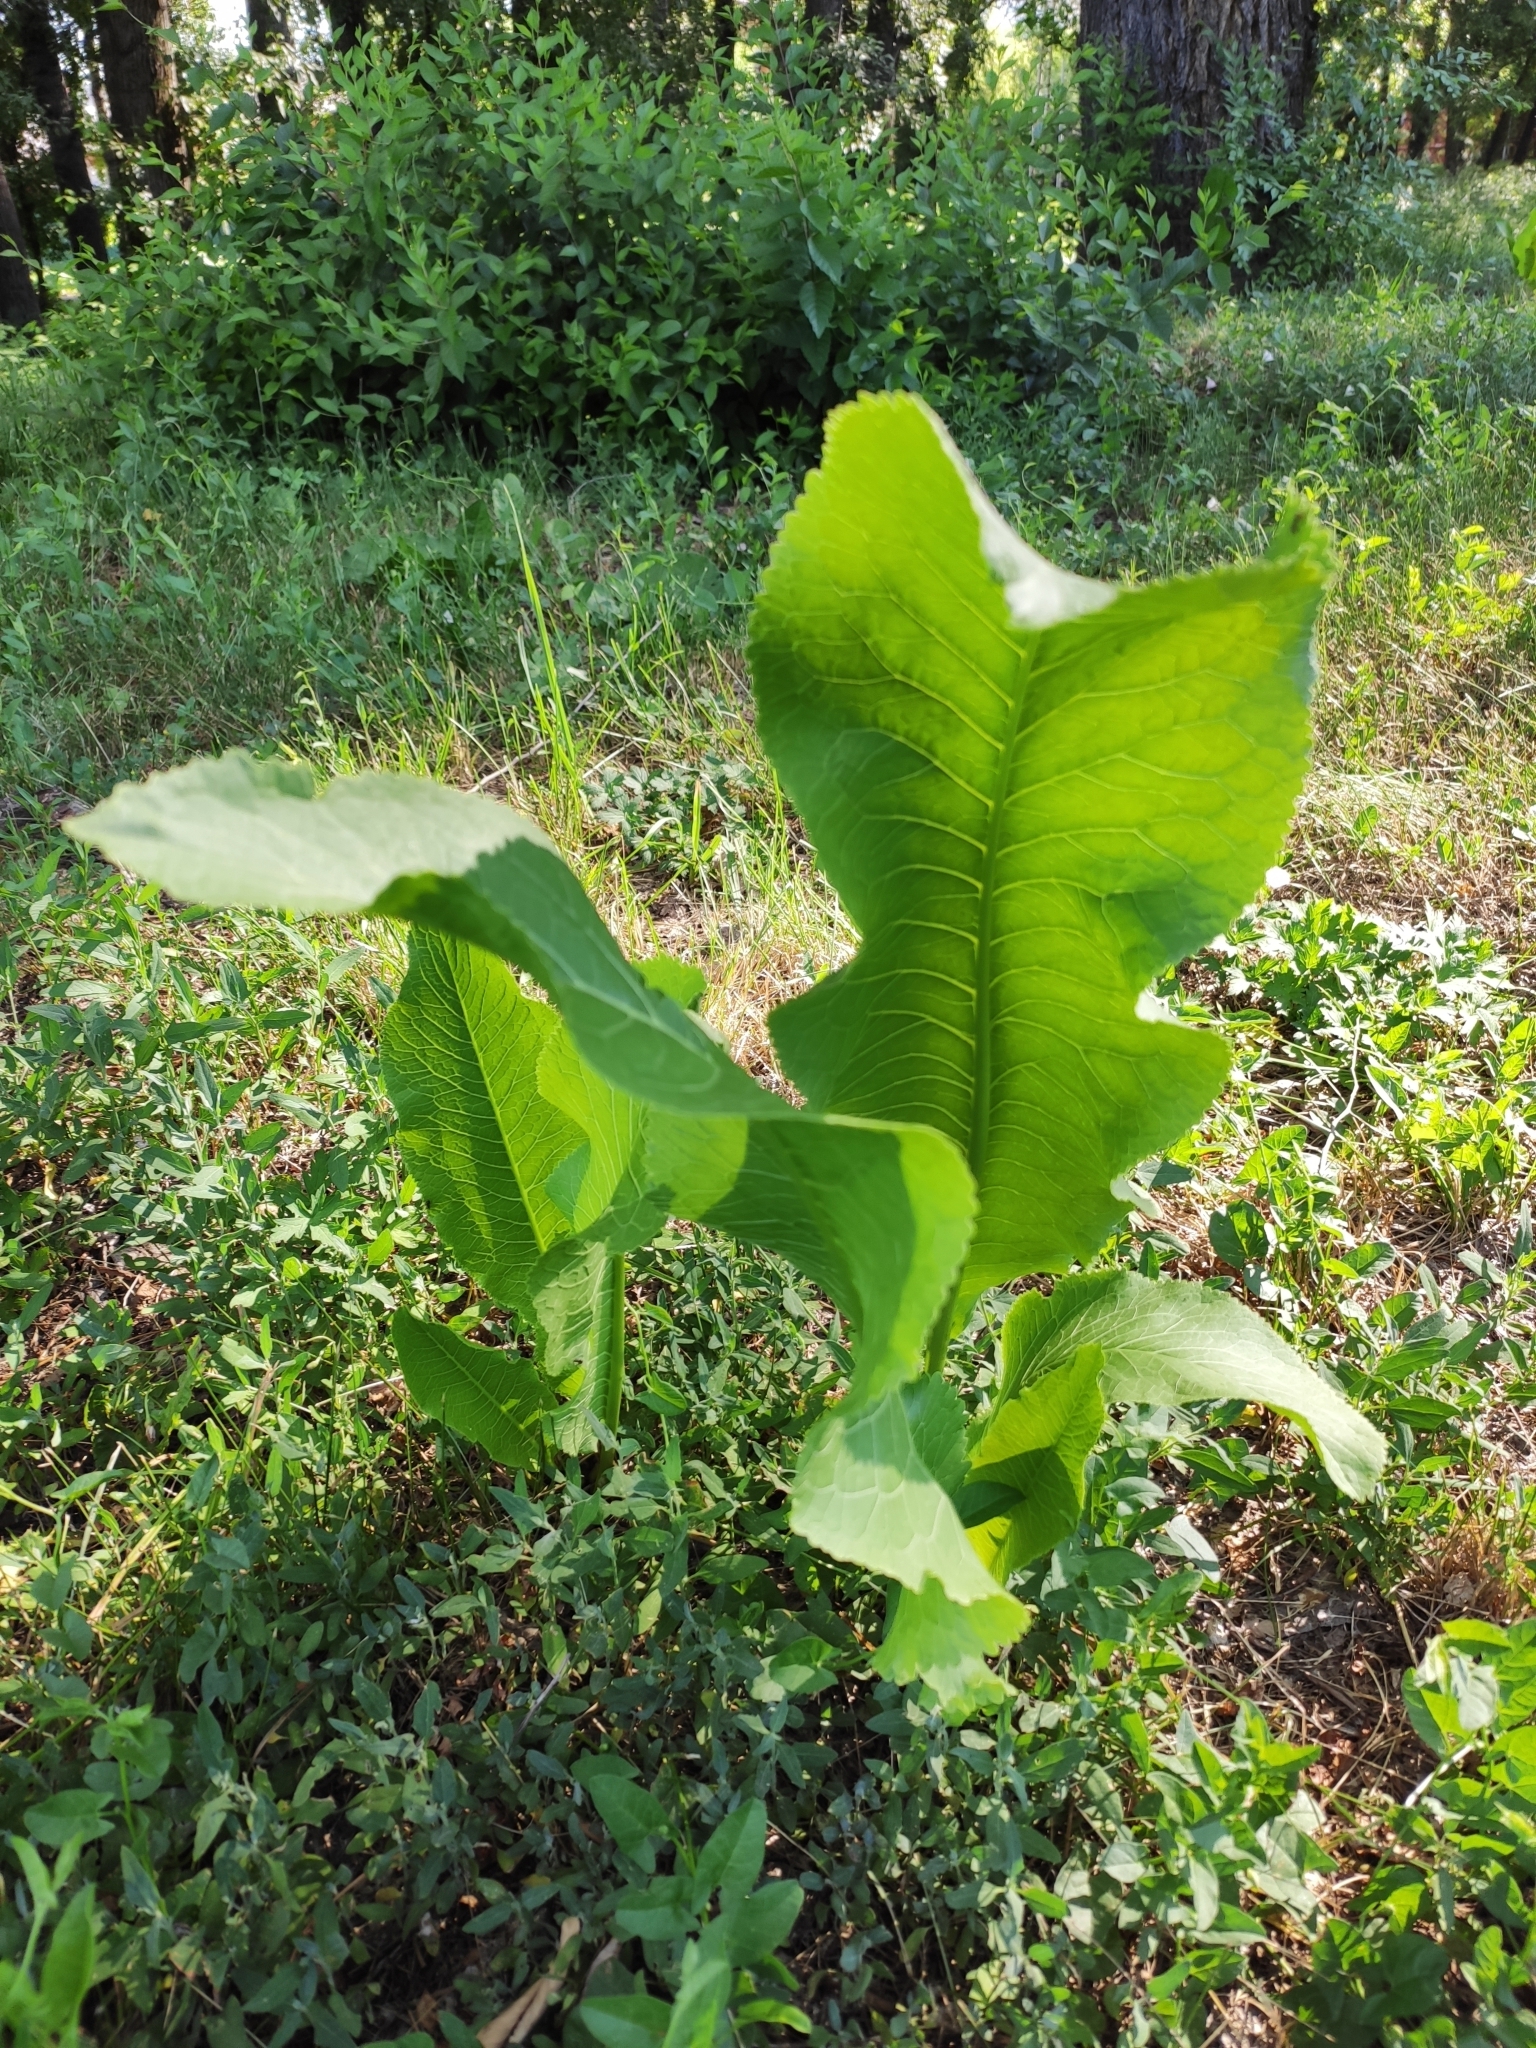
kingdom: Plantae
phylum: Tracheophyta
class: Magnoliopsida
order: Brassicales
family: Brassicaceae
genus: Armoracia
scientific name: Armoracia rusticana
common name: Horseradish
